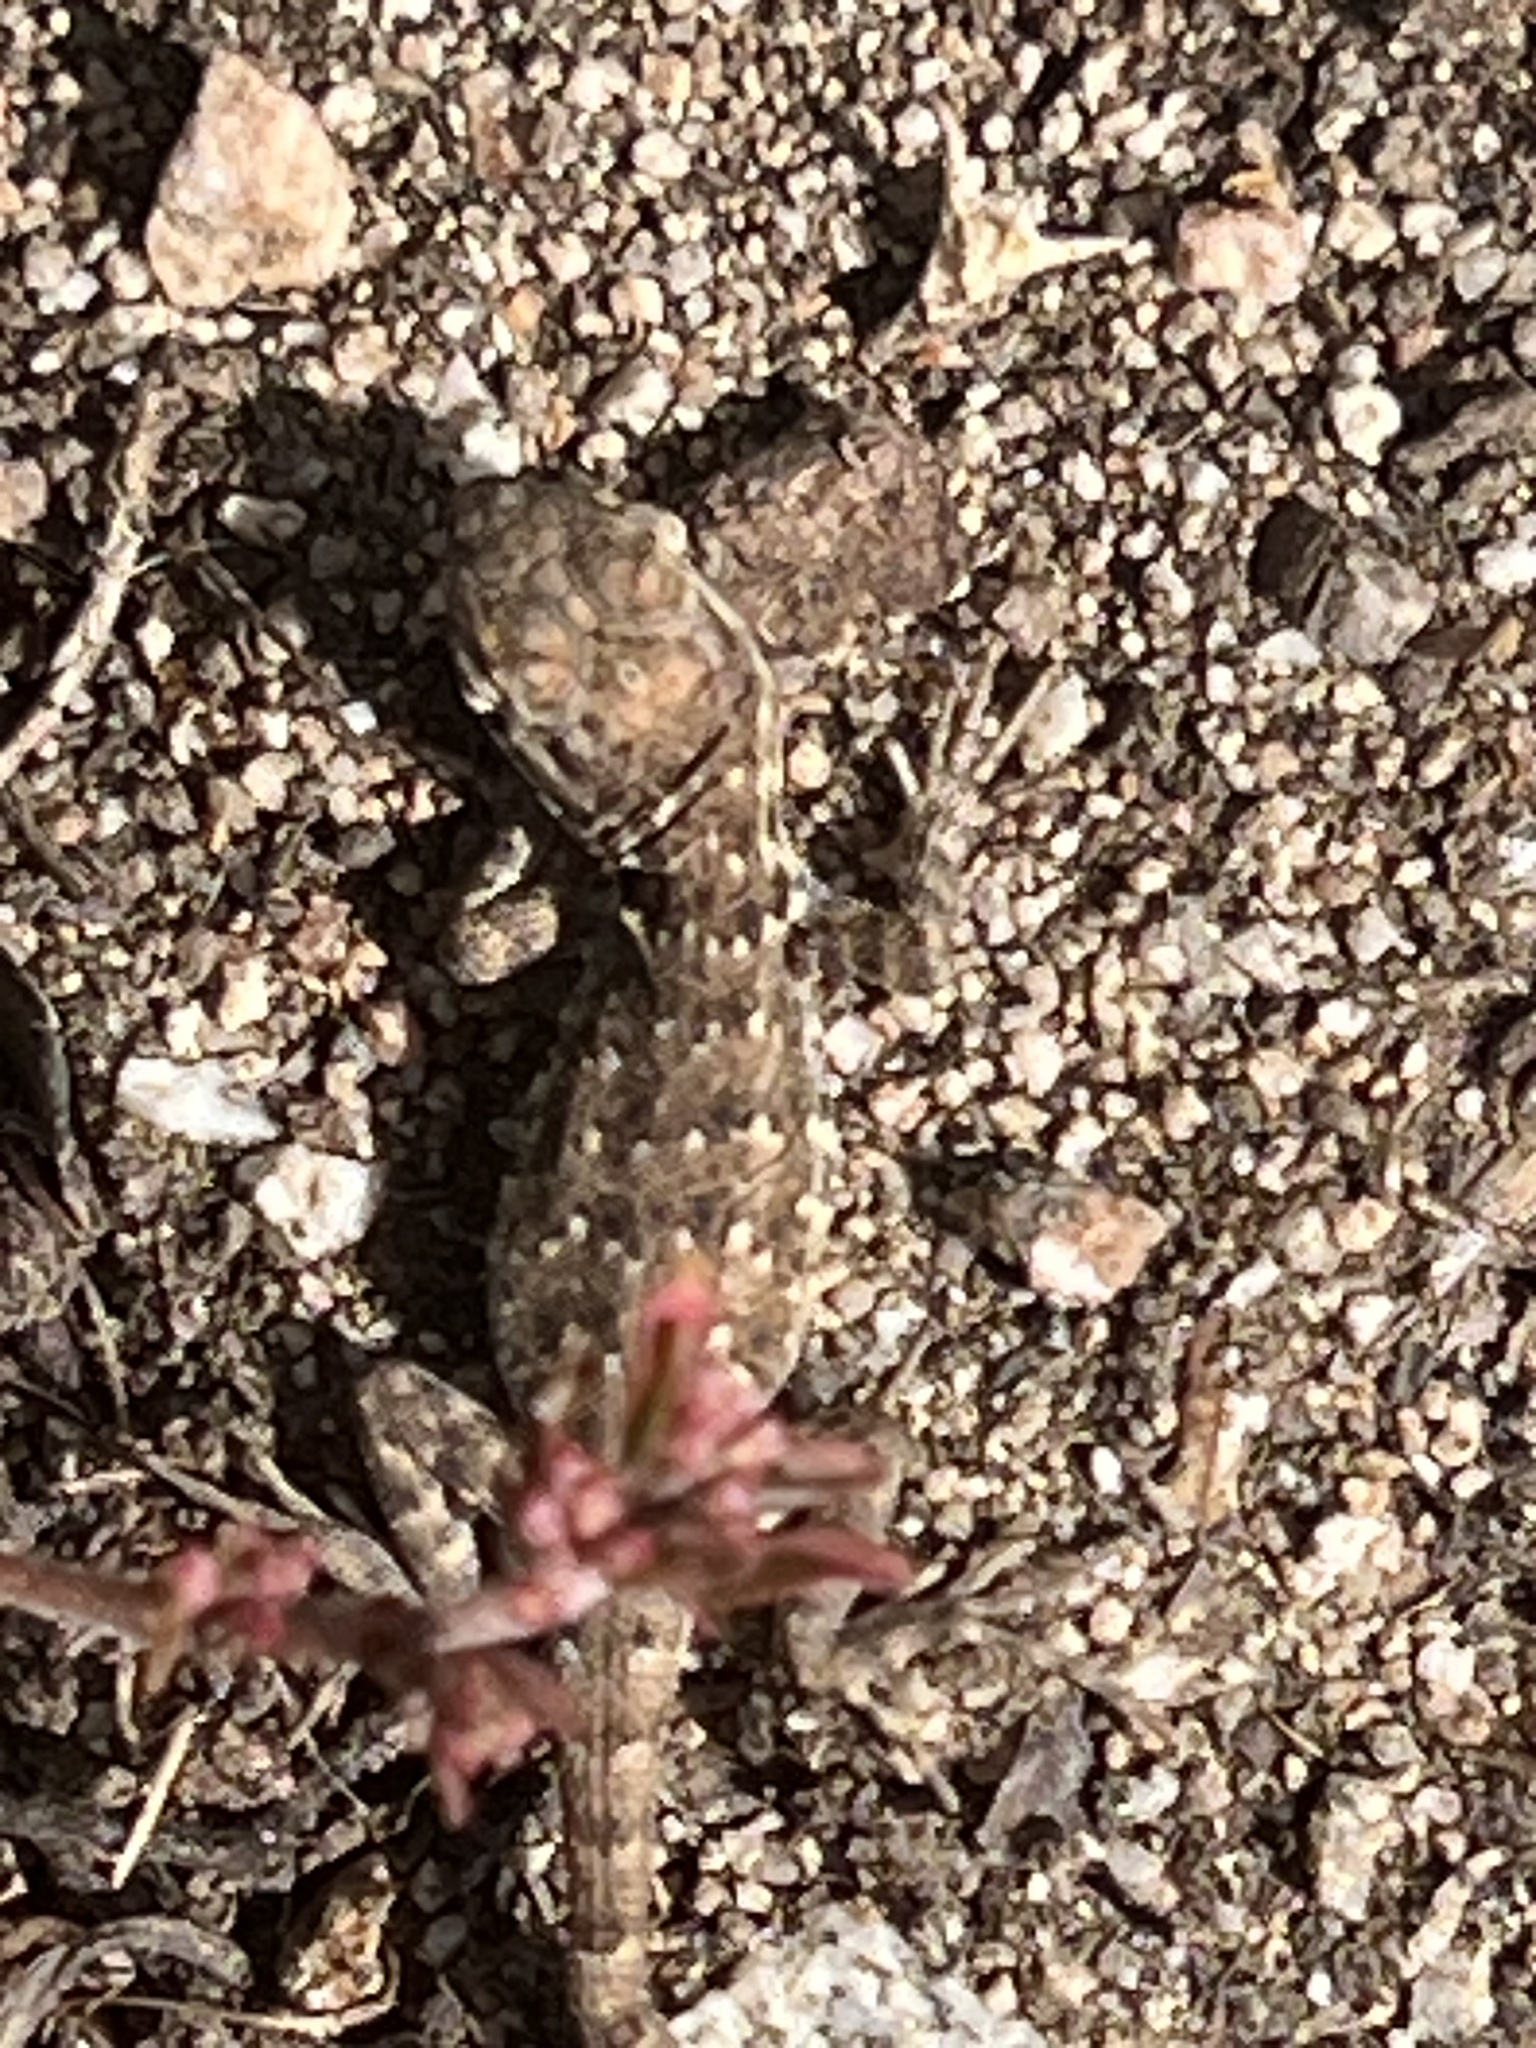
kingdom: Animalia
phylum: Chordata
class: Squamata
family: Phrynosomatidae
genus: Uta
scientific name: Uta stansburiana
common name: Side-blotched lizard
